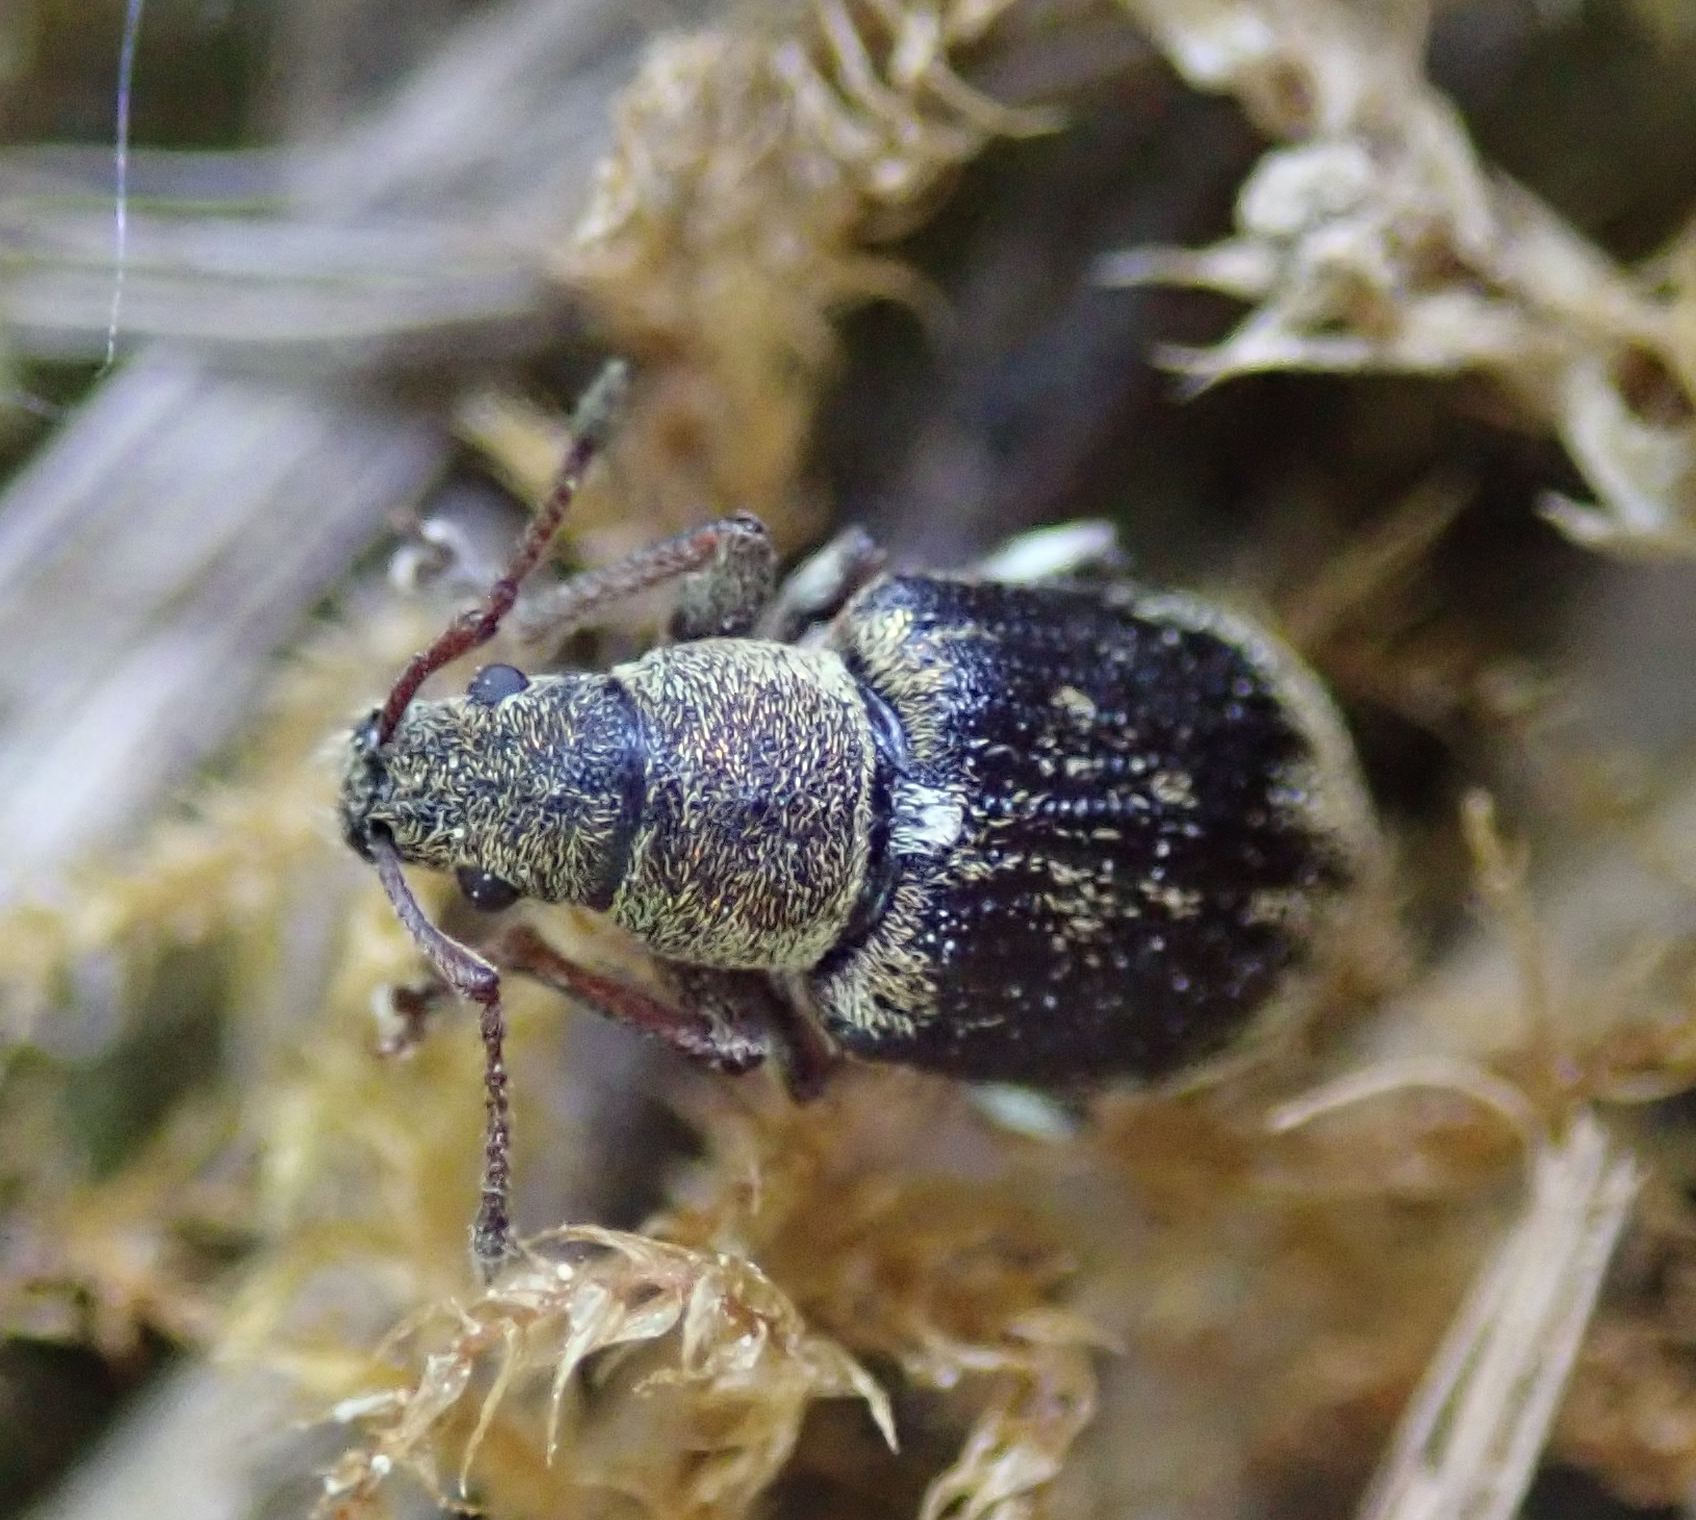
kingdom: Animalia
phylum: Arthropoda
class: Insecta
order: Coleoptera
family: Curculionidae
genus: Phyllobius
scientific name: Phyllobius pyri
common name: Common leaf weevil
